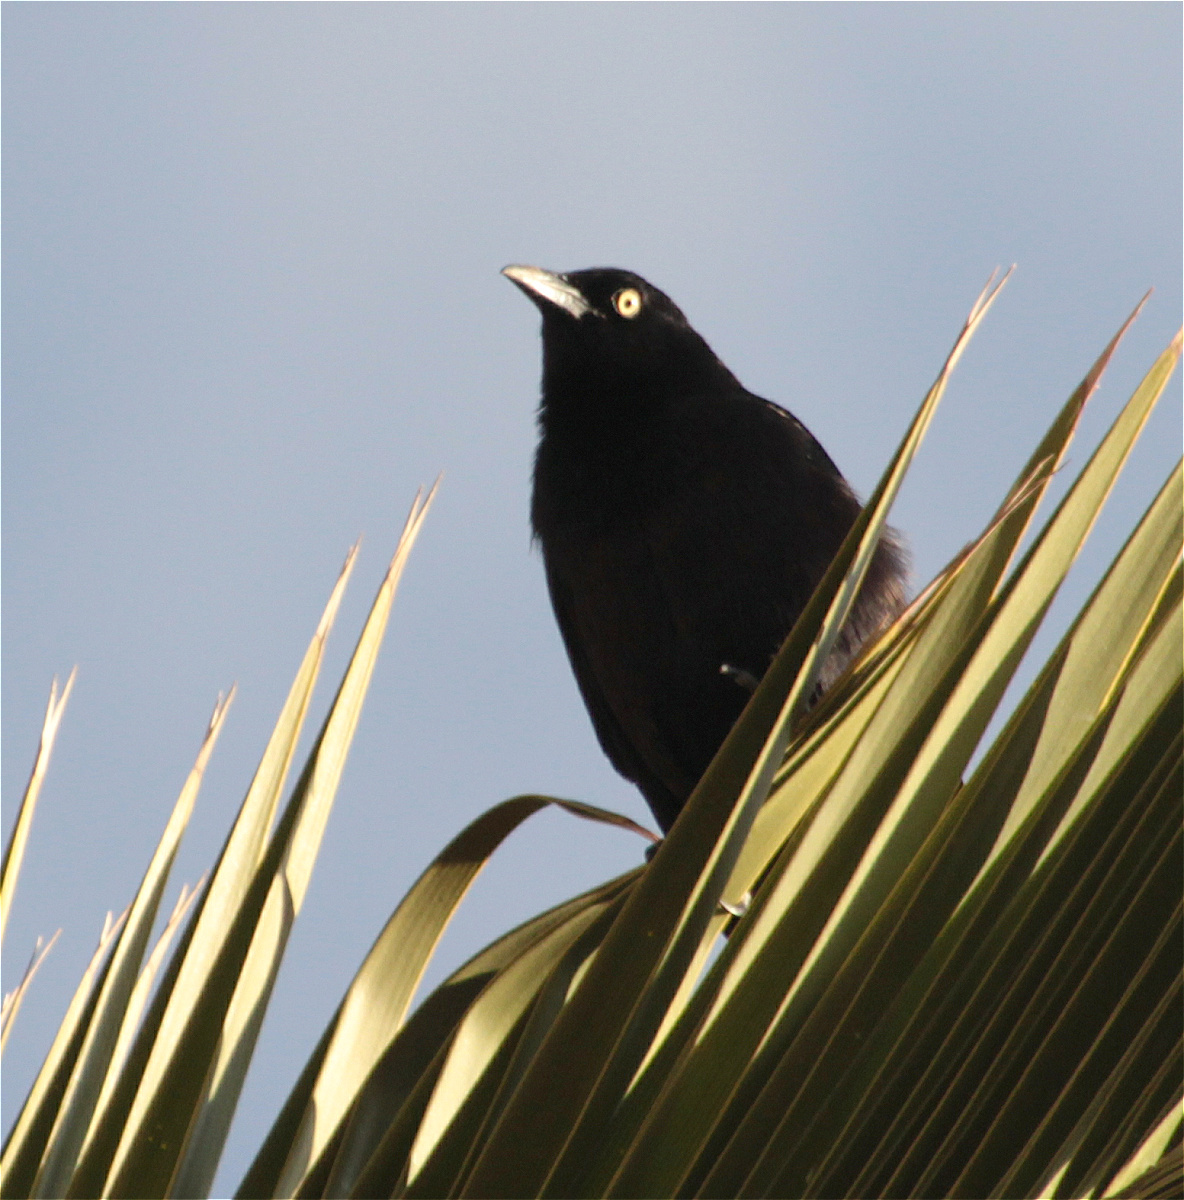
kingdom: Animalia
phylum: Chordata
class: Aves
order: Passeriformes
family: Icteridae
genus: Quiscalus
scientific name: Quiscalus lugubris
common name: Carib grackle
